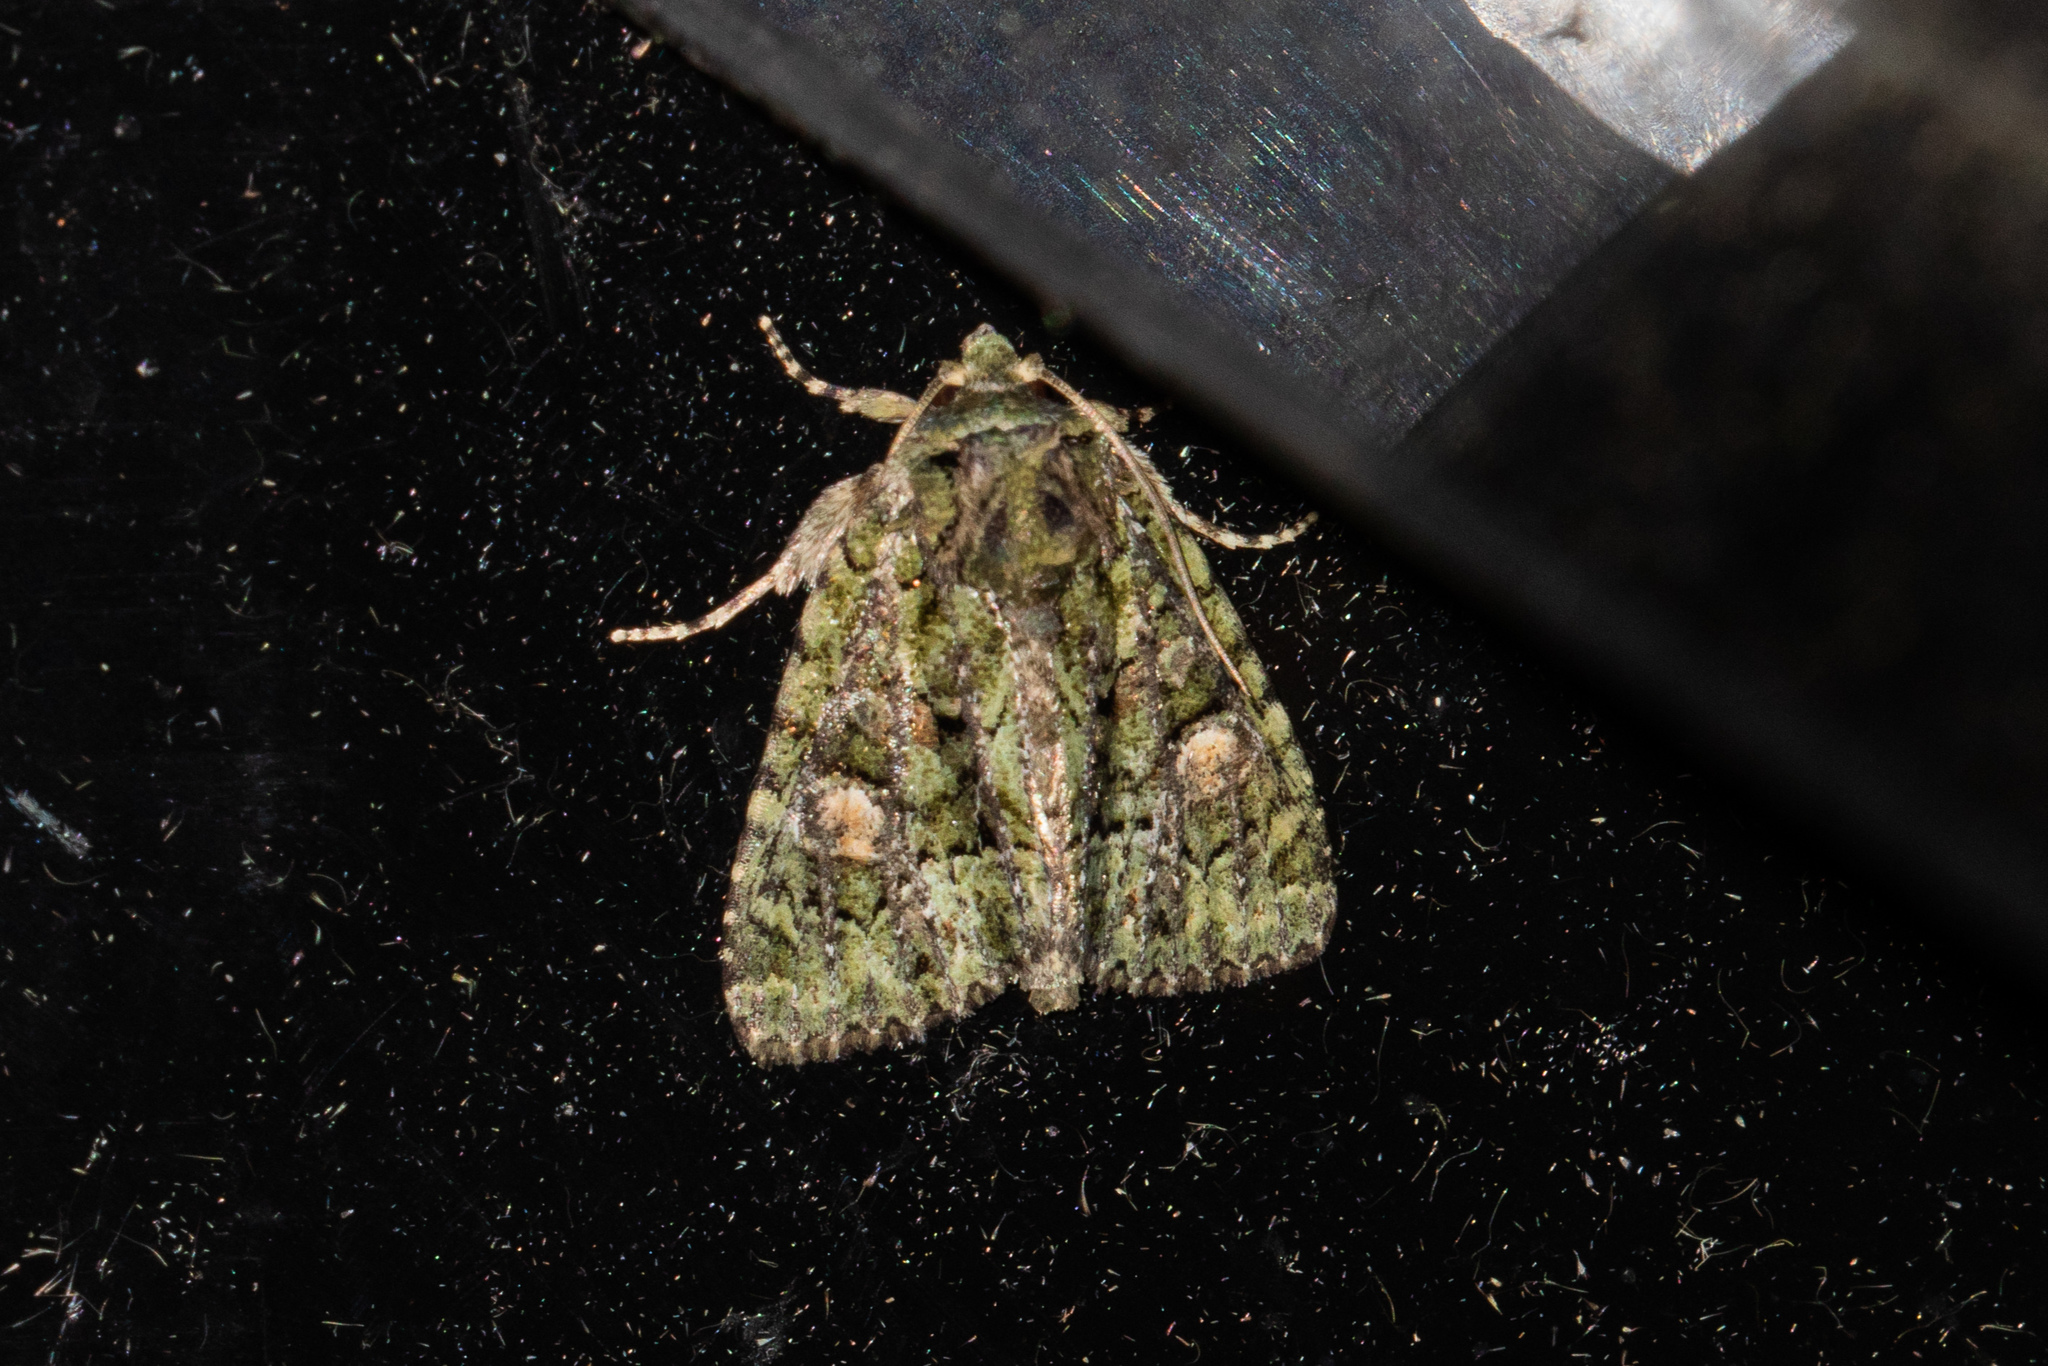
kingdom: Animalia
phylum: Arthropoda
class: Insecta
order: Lepidoptera
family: Noctuidae
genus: Phosphila
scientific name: Phosphila miselioides
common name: Spotted phosphila moth
